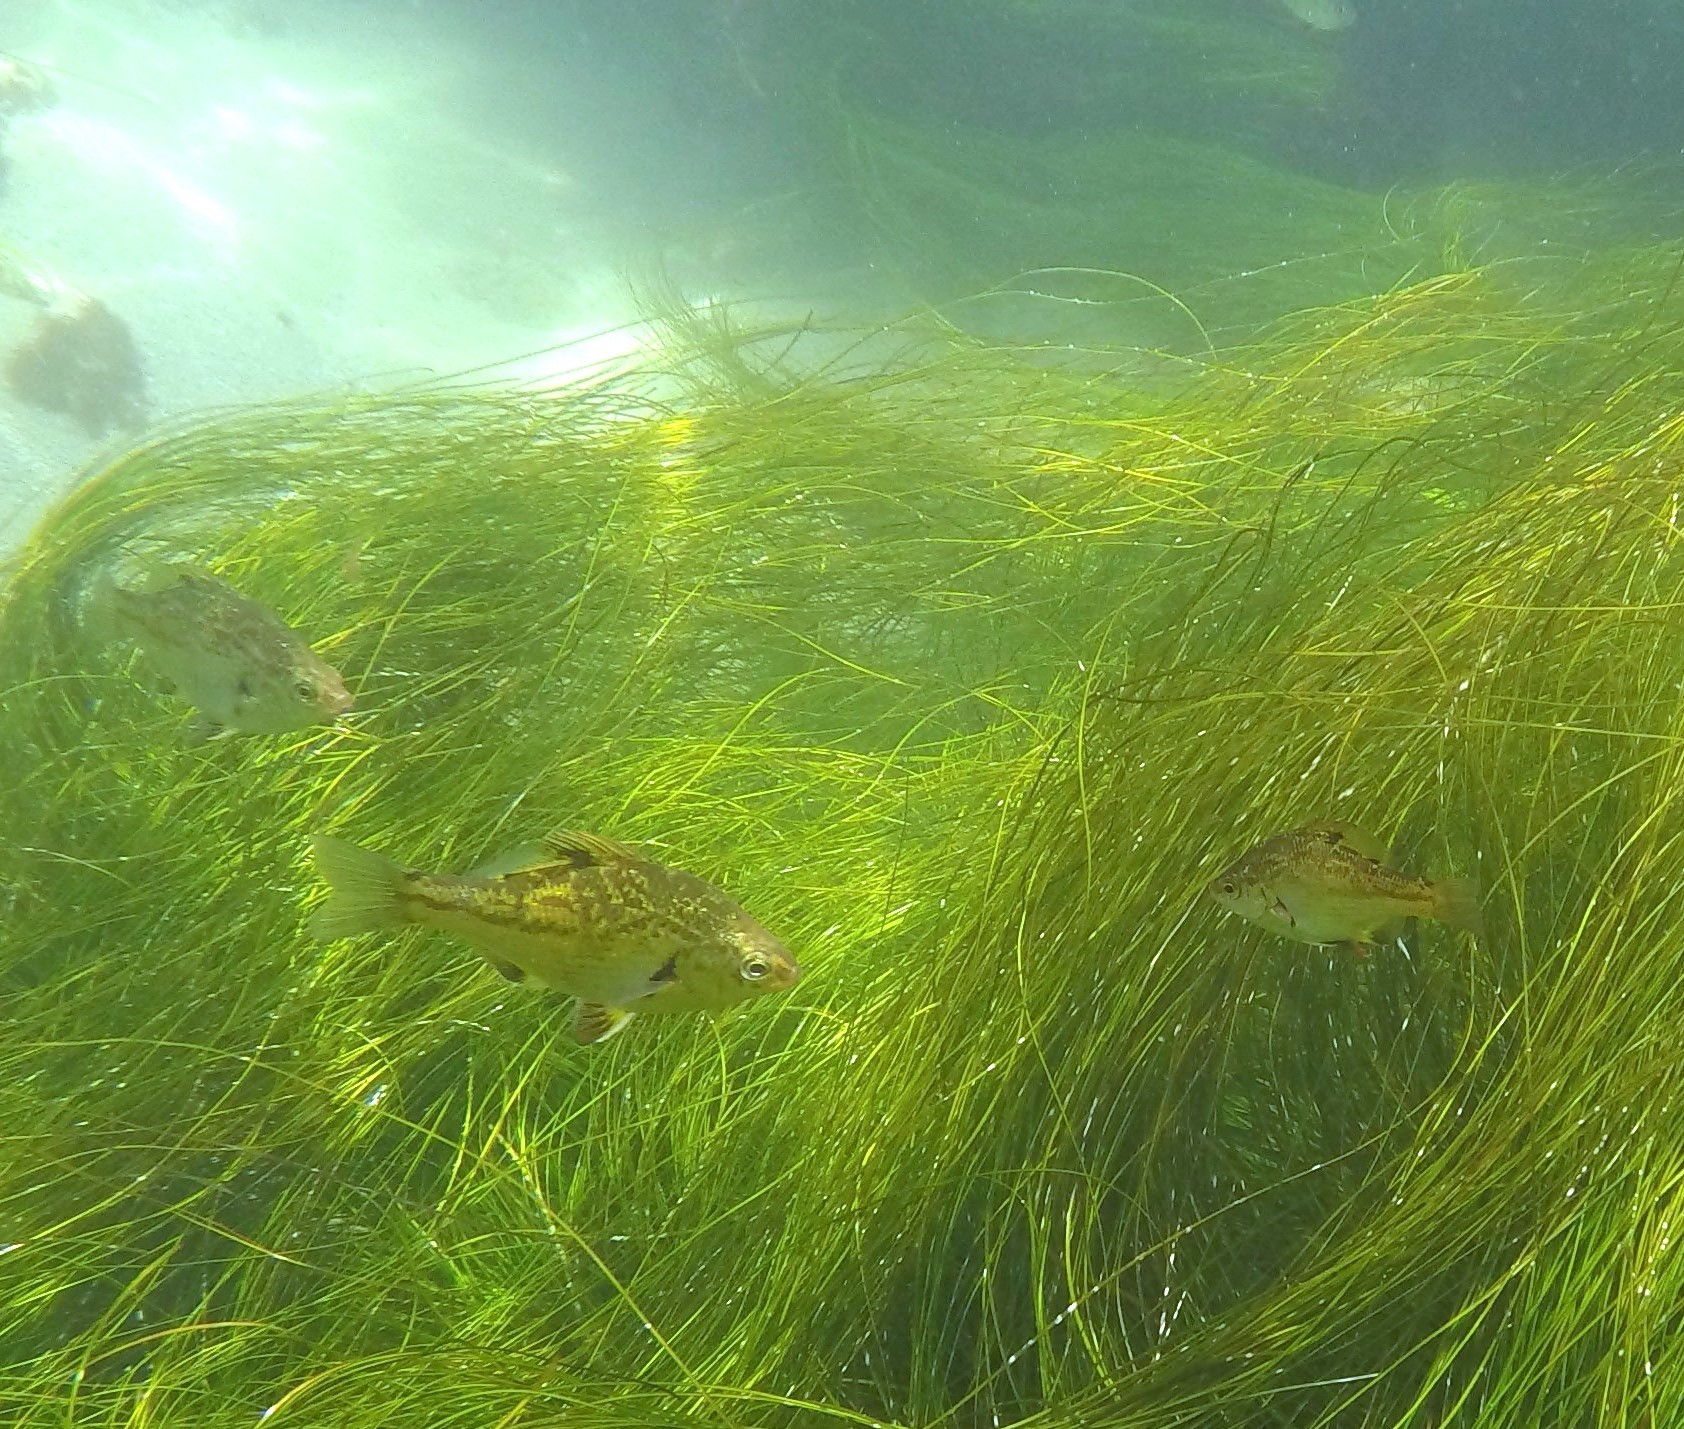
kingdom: Animalia
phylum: Chordata
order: Perciformes
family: Embiotocidae
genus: Micrometrus
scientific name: Micrometrus minimus
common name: Dwarf perch
